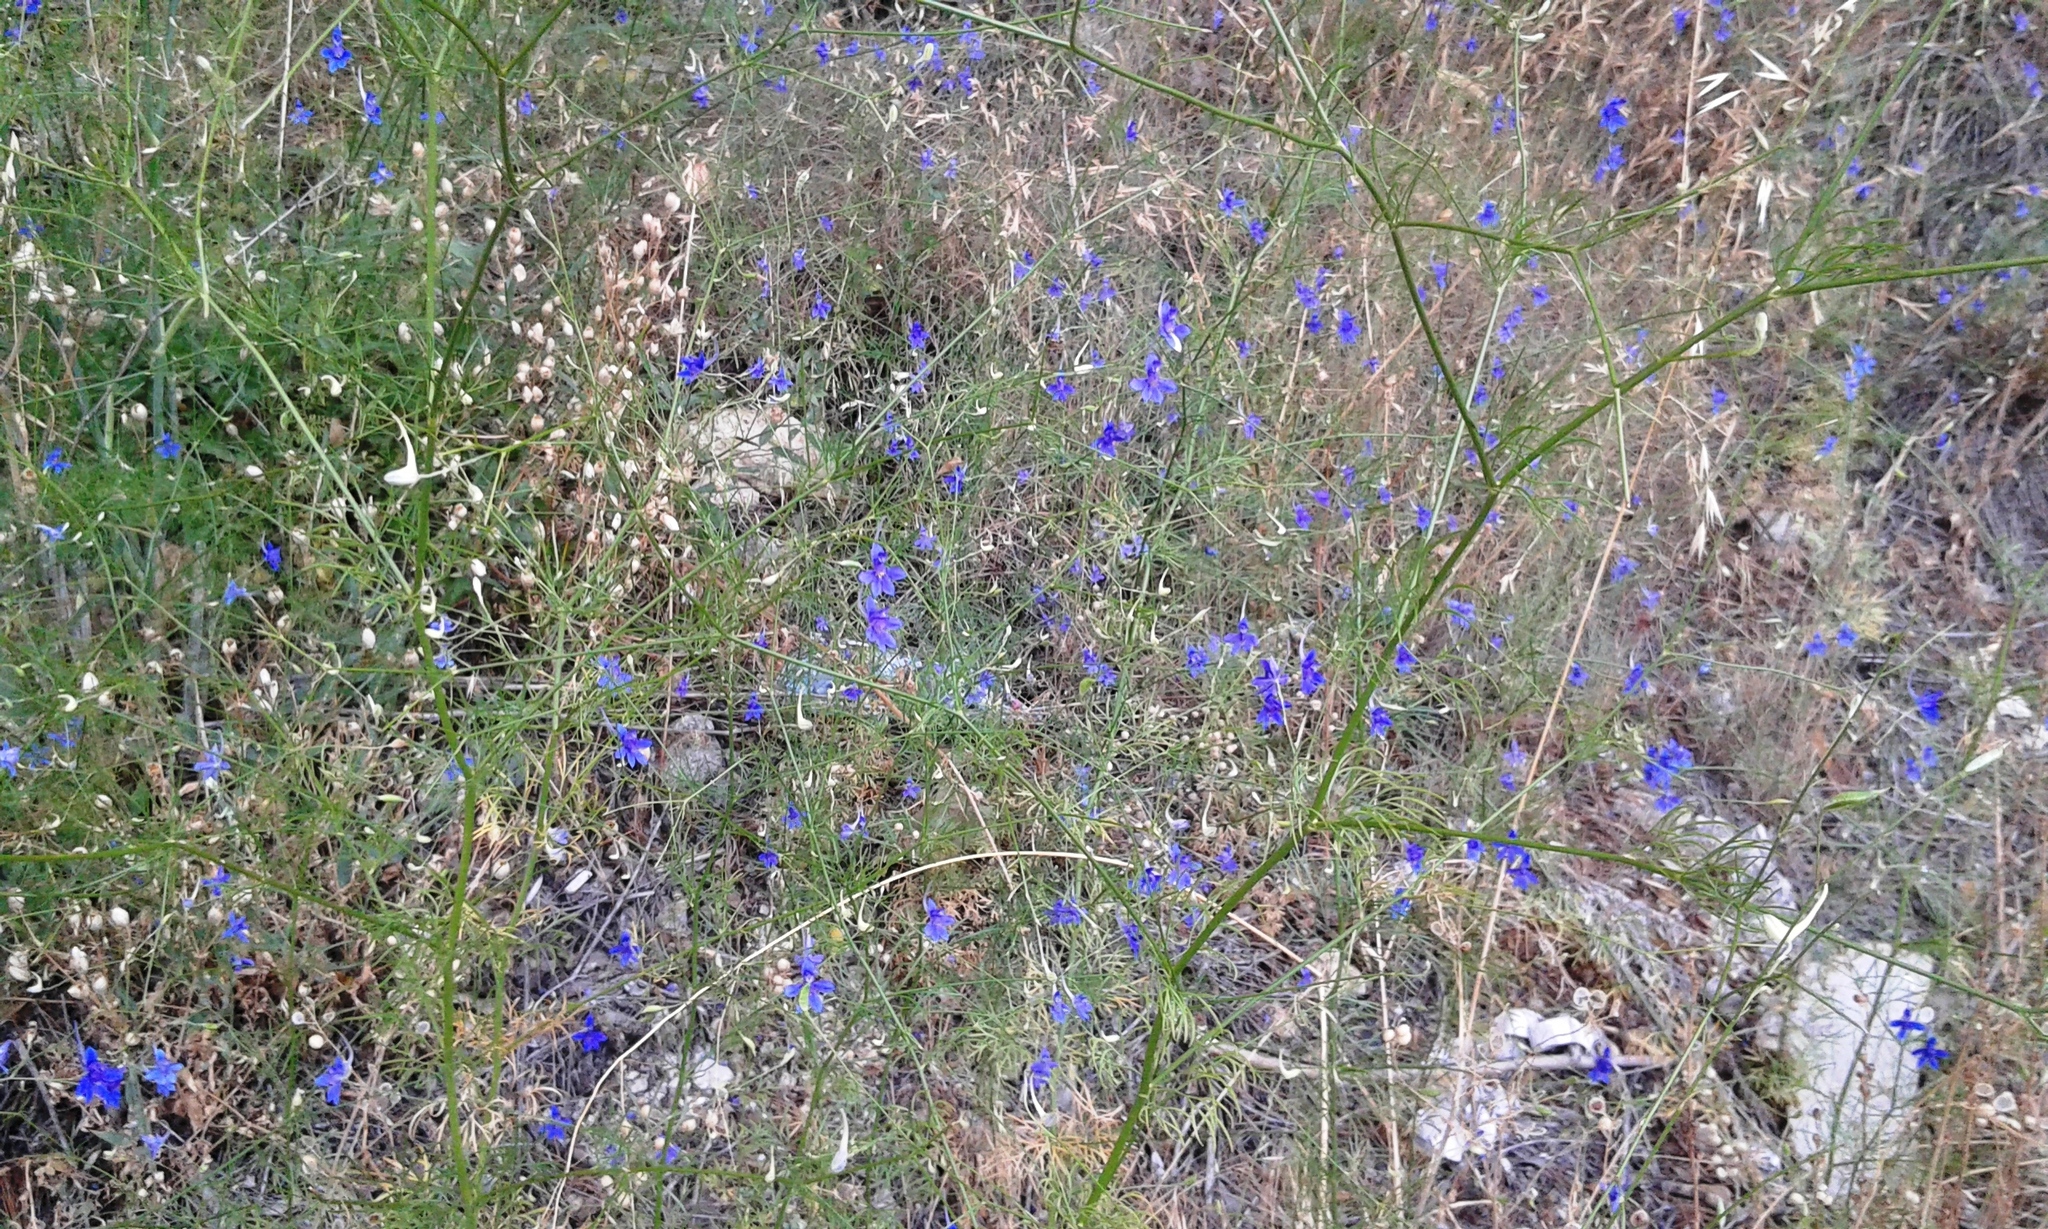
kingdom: Plantae
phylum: Tracheophyta
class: Magnoliopsida
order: Ranunculales
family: Ranunculaceae
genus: Delphinium
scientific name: Delphinium consolida
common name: Branching larkspur
